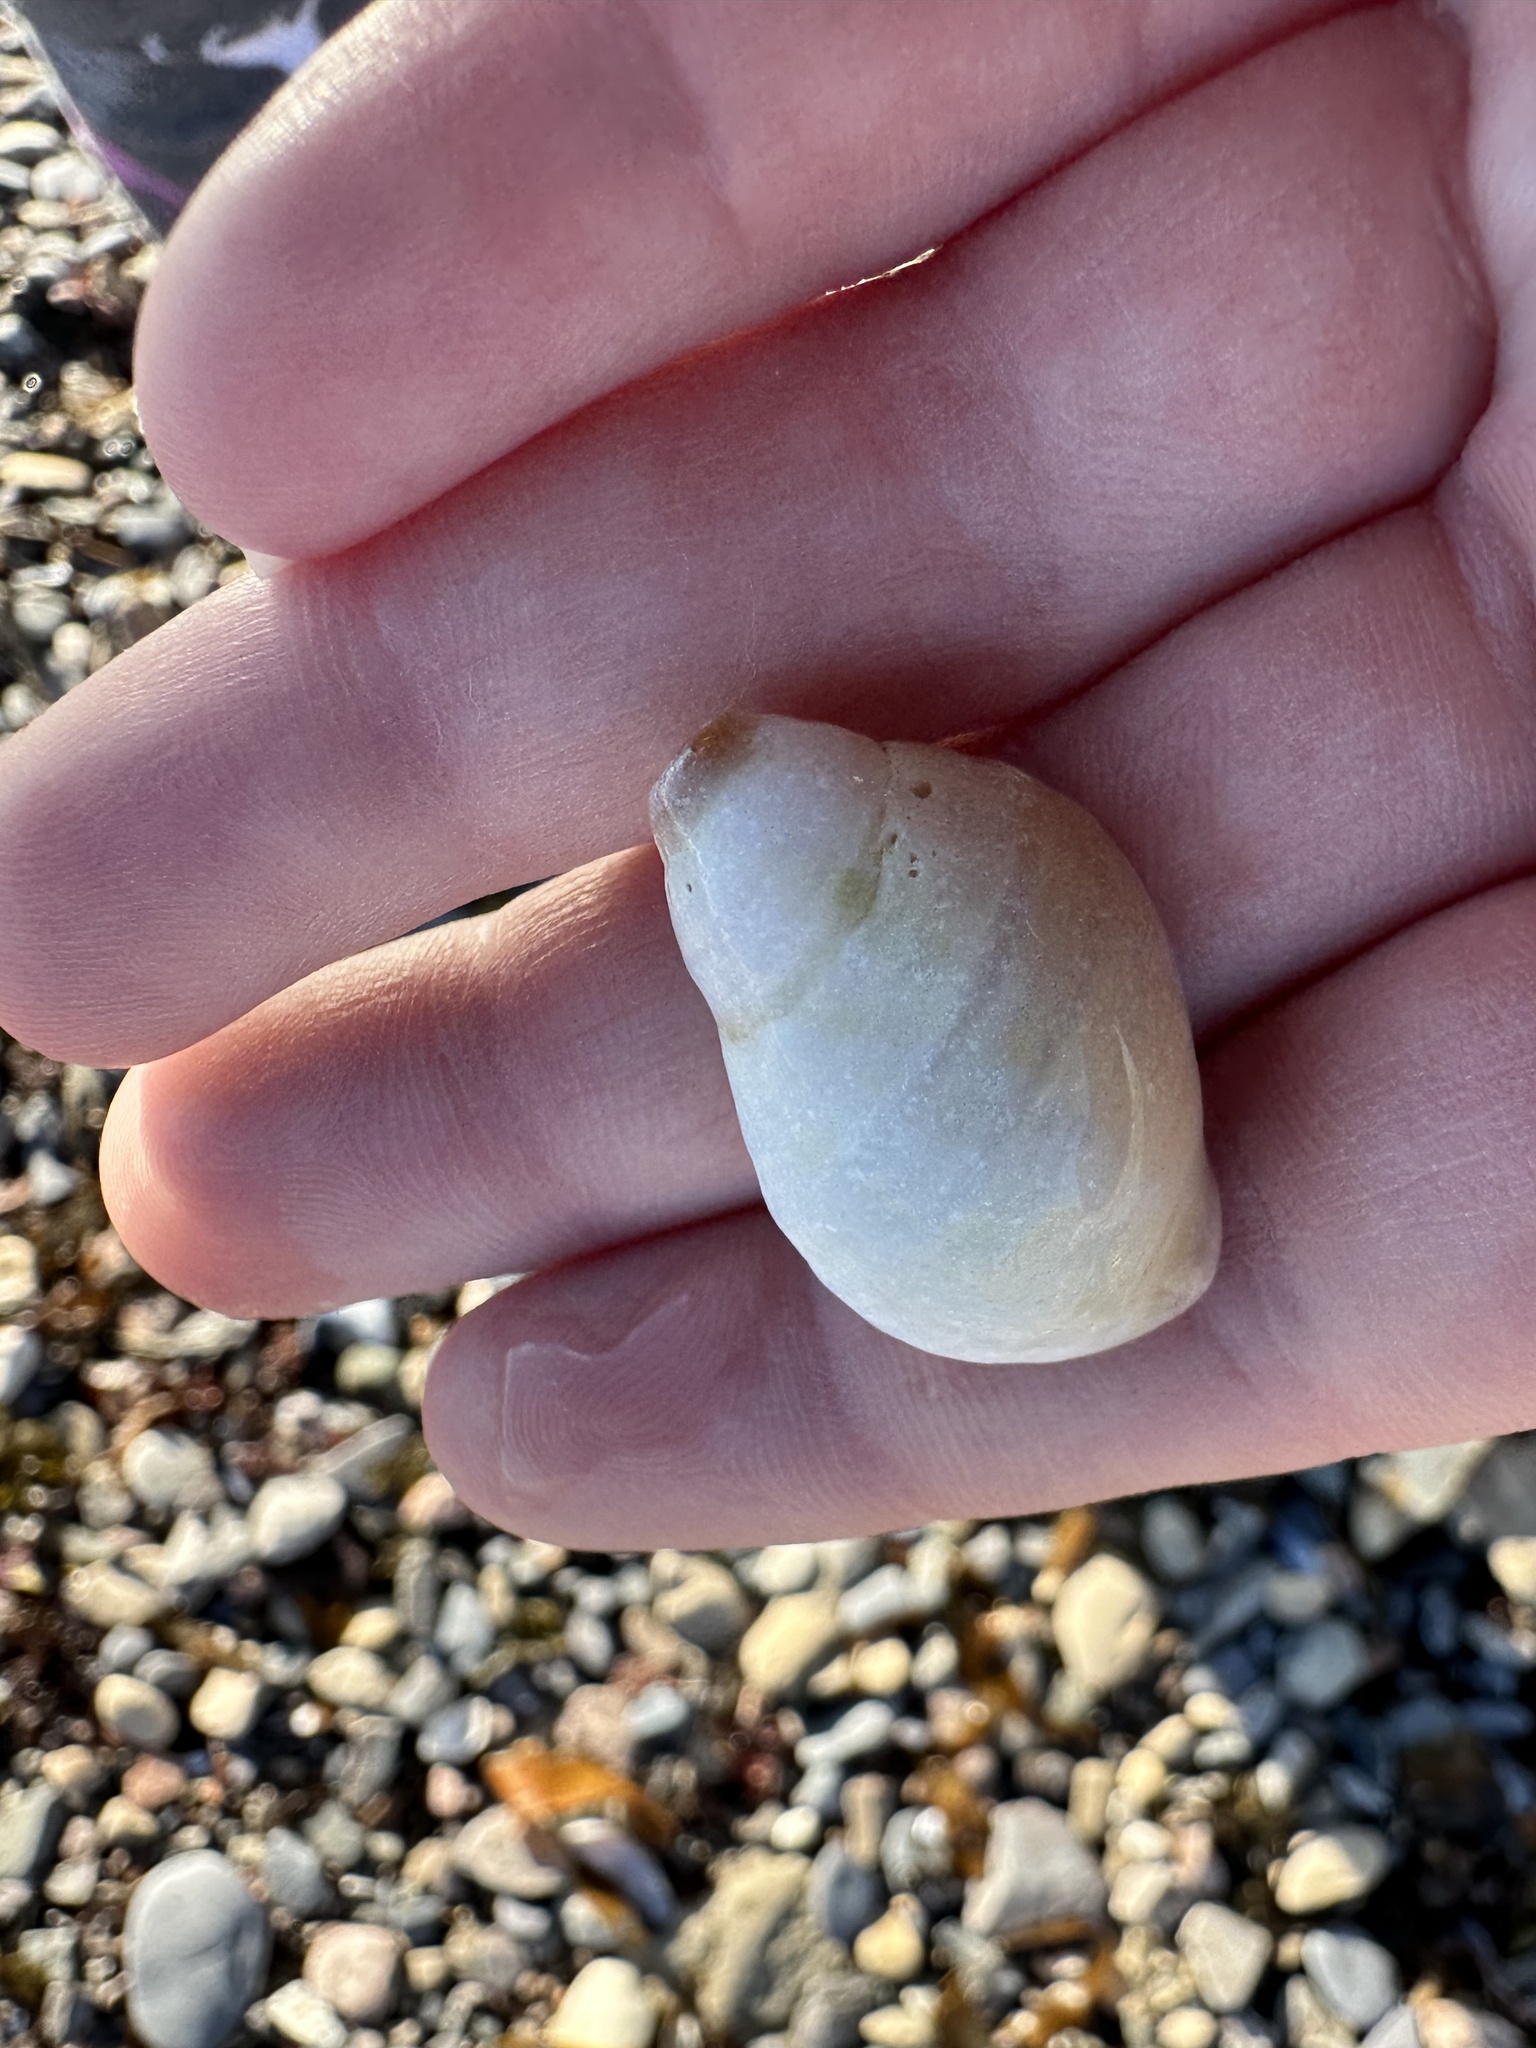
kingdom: Animalia
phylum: Mollusca
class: Gastropoda
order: Neogastropoda
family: Muricidae
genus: Nucella
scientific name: Nucella lapillus
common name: Dog whelk
